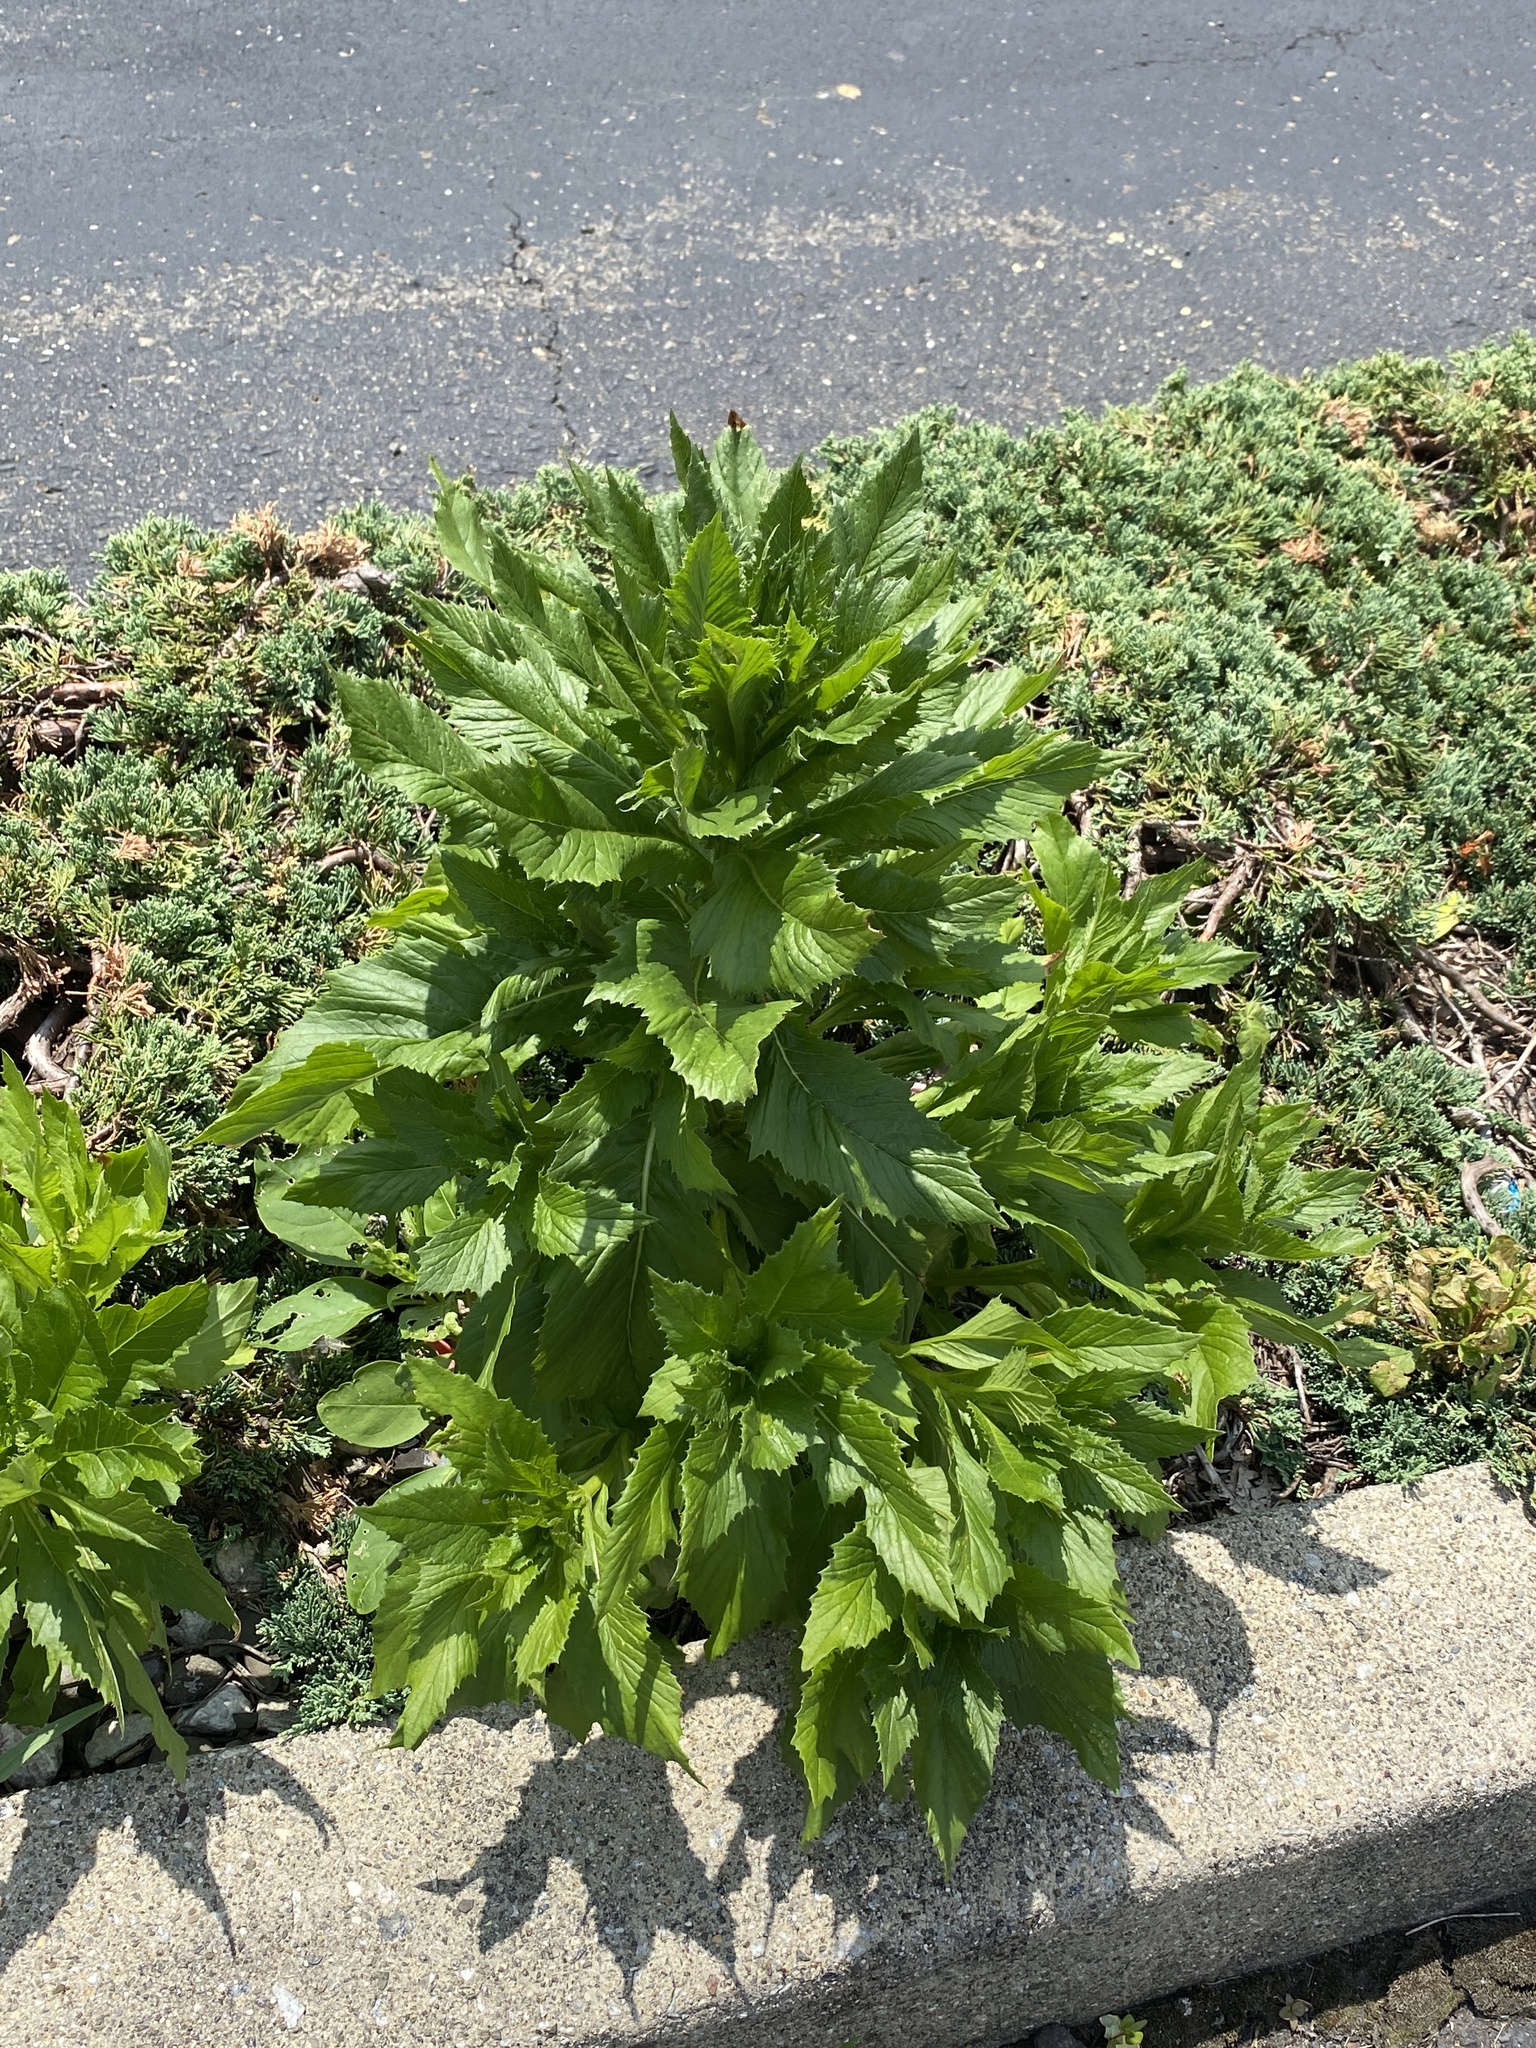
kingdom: Plantae
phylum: Tracheophyta
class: Magnoliopsida
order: Asterales
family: Asteraceae
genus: Erechtites
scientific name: Erechtites hieraciifolius
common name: American burnweed
